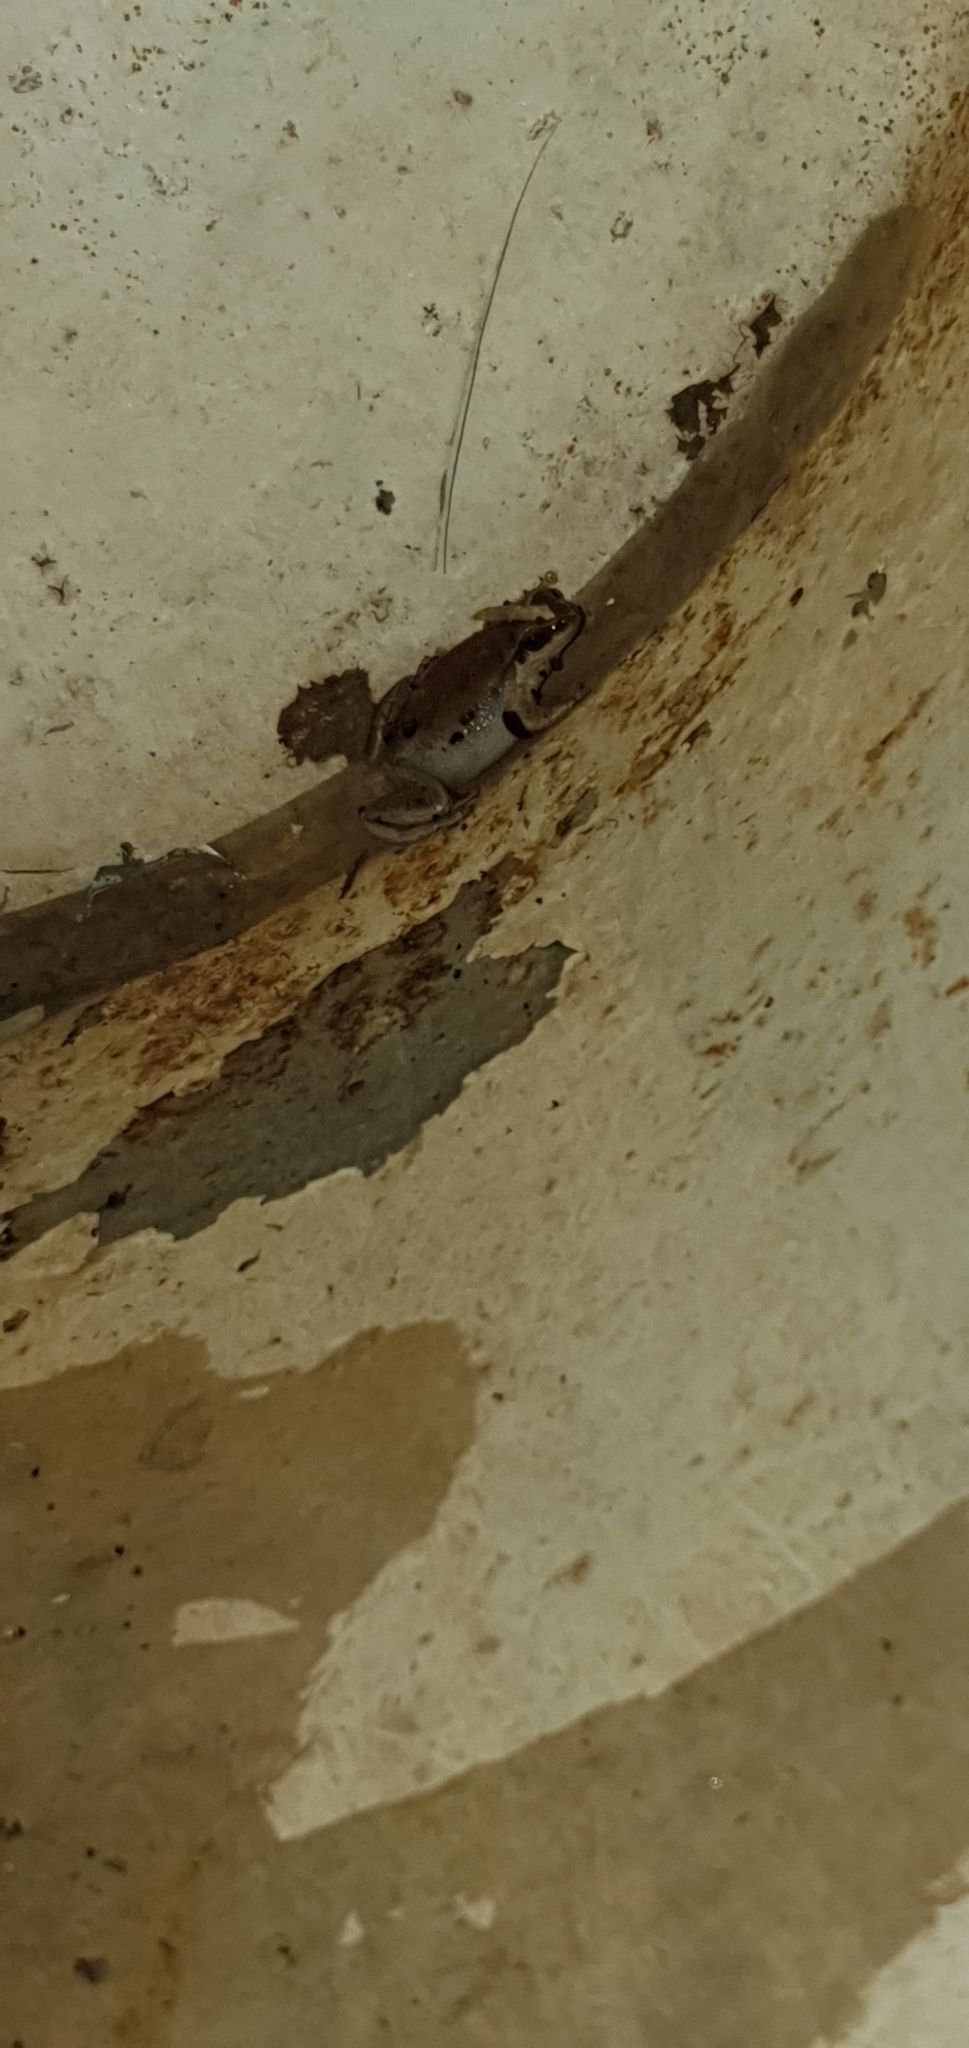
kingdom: Animalia
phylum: Chordata
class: Amphibia
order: Anura
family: Pelodryadidae
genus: Litoria
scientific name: Litoria rubella
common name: Desert tree frog
